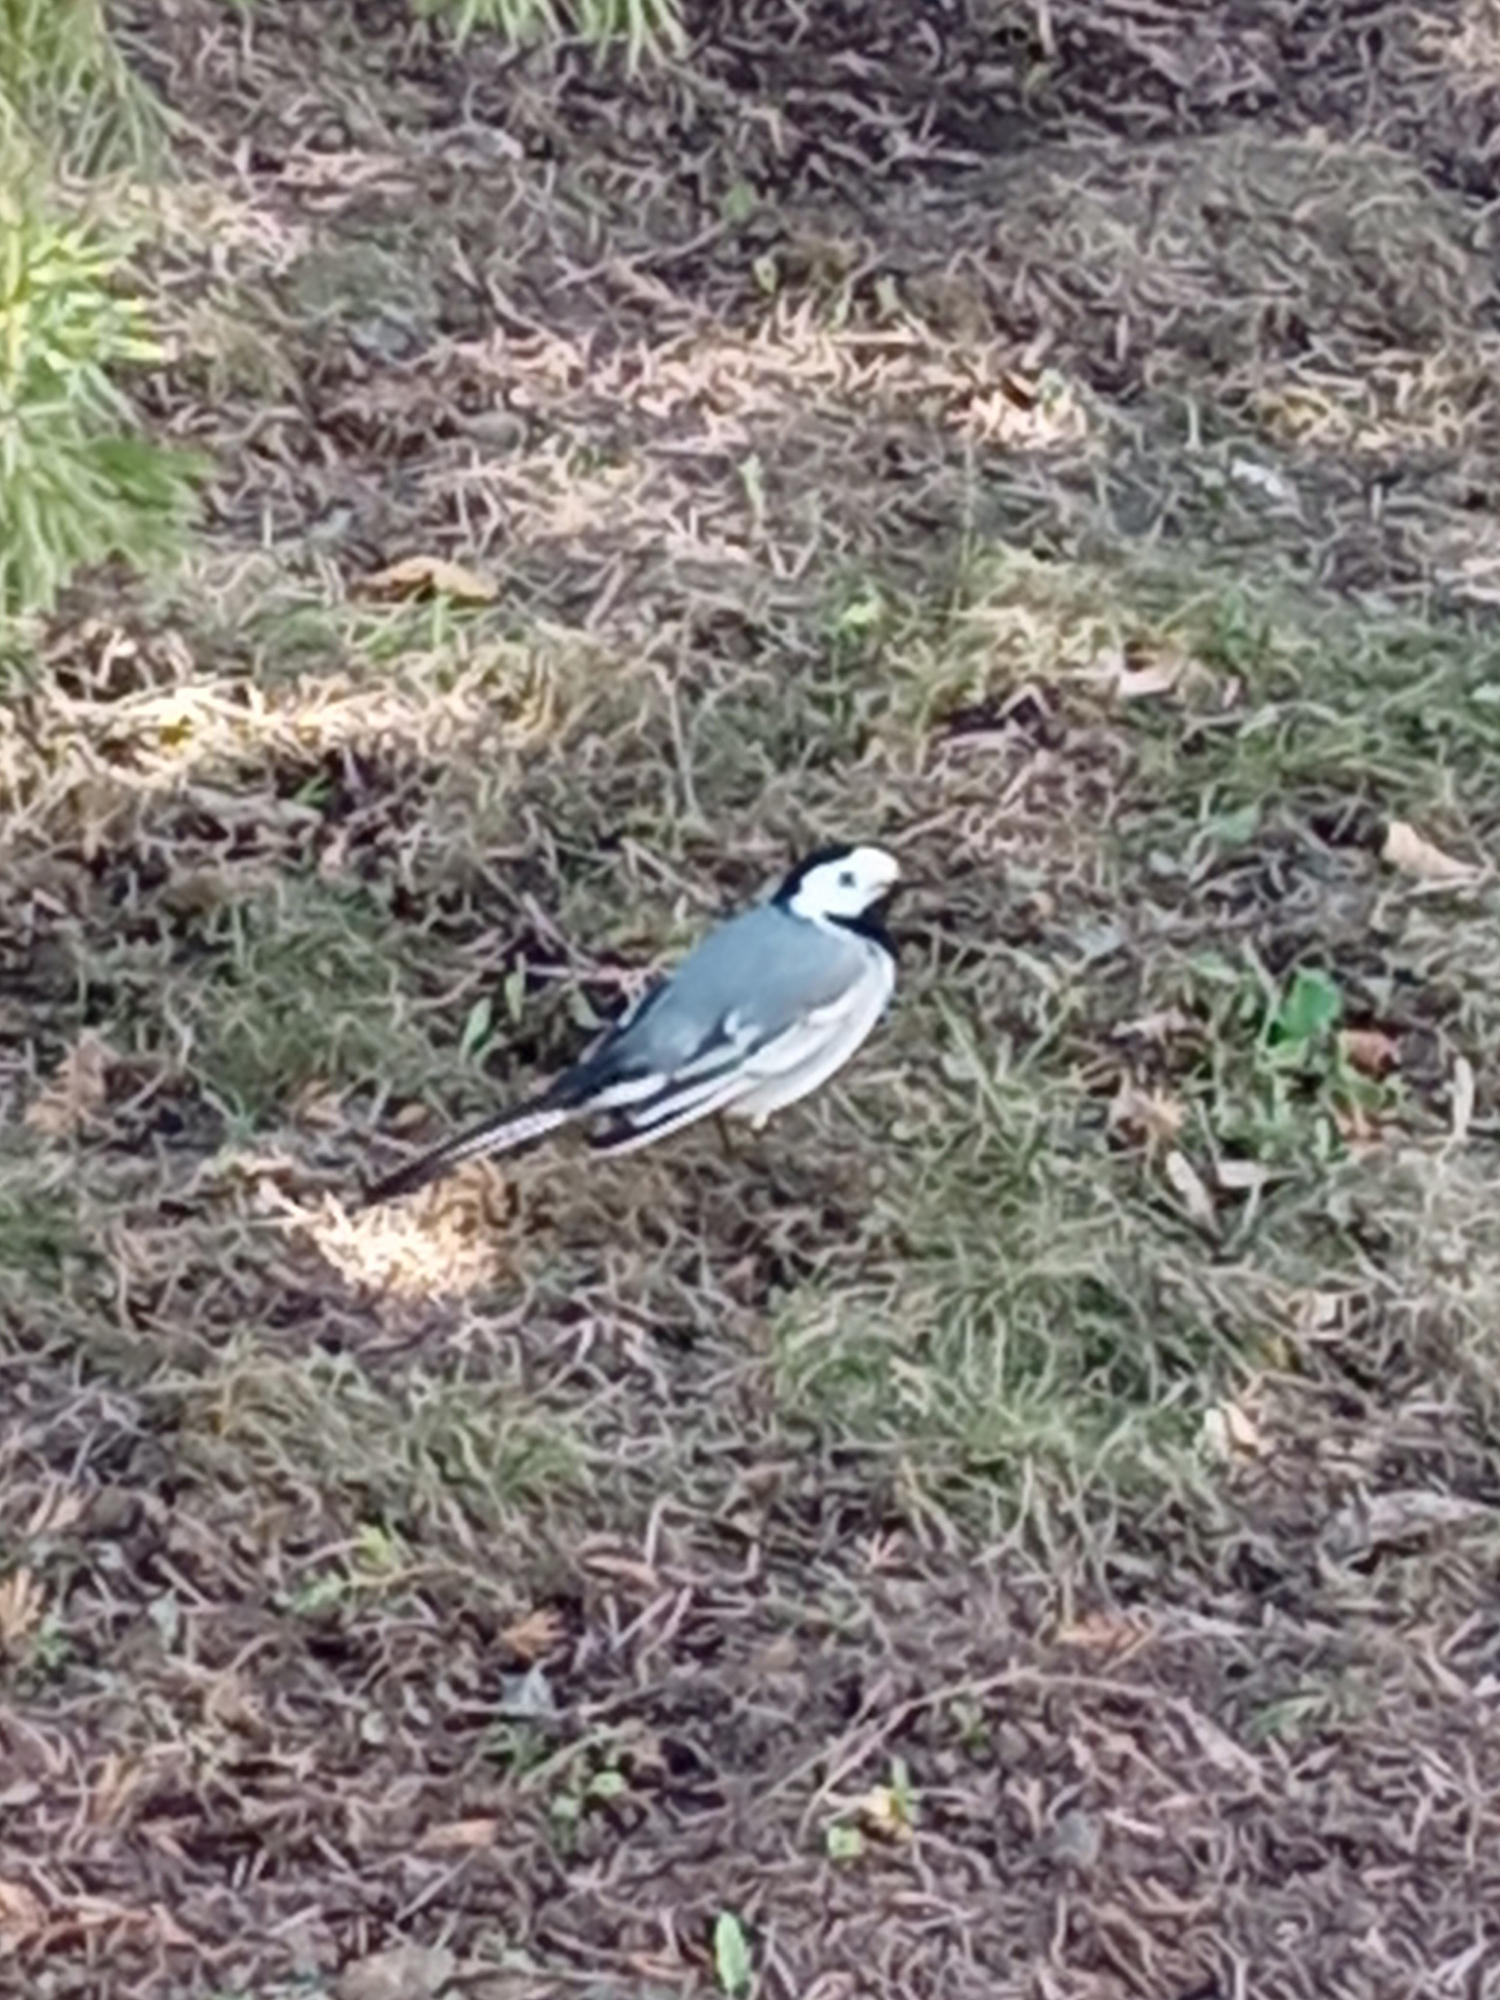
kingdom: Animalia
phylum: Chordata
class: Aves
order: Passeriformes
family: Motacillidae
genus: Motacilla
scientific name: Motacilla alba
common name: White wagtail
